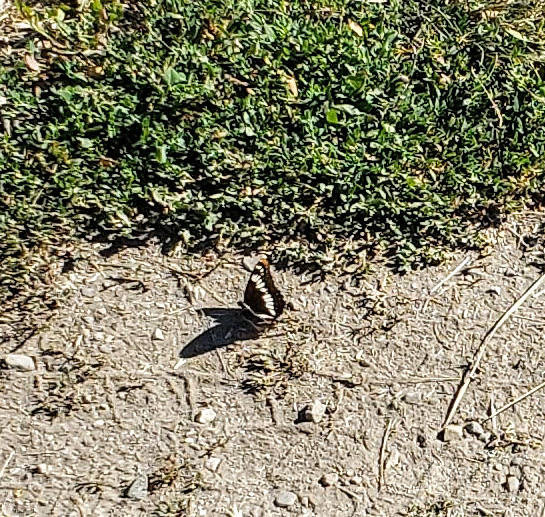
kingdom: Animalia
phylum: Arthropoda
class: Insecta
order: Lepidoptera
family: Nymphalidae
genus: Limenitis
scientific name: Limenitis lorquini
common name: Lorquin's admiral
